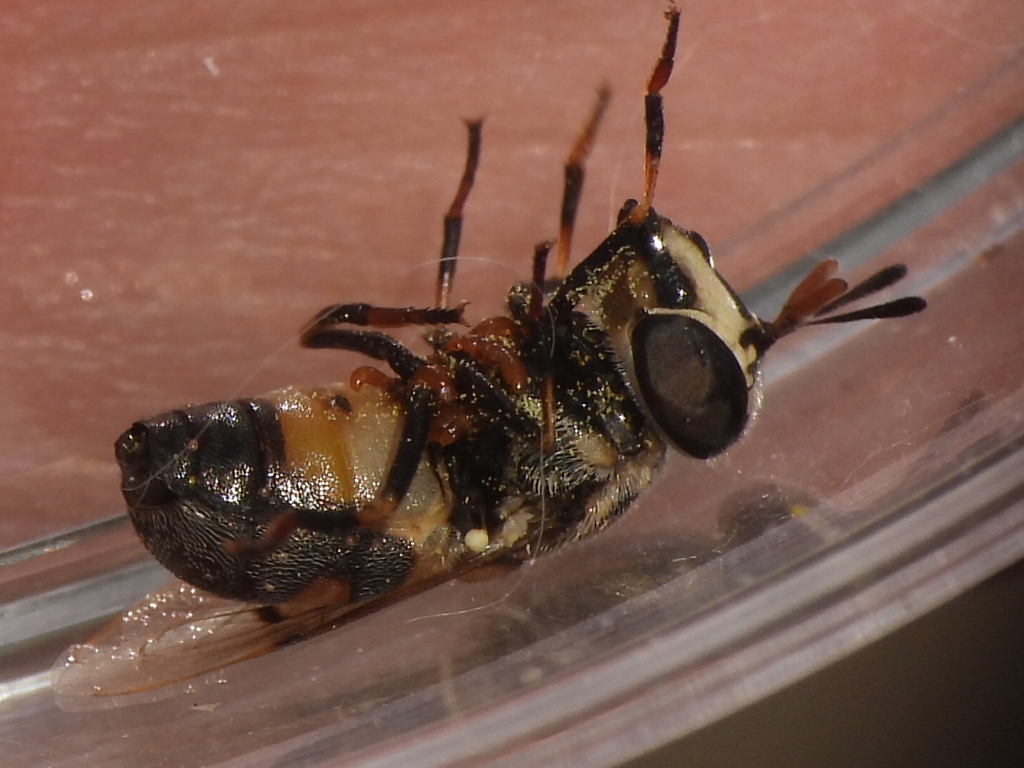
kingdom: Animalia
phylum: Arthropoda
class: Insecta
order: Diptera
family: Syrphidae
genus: Copestylum
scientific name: Copestylum caudatum
